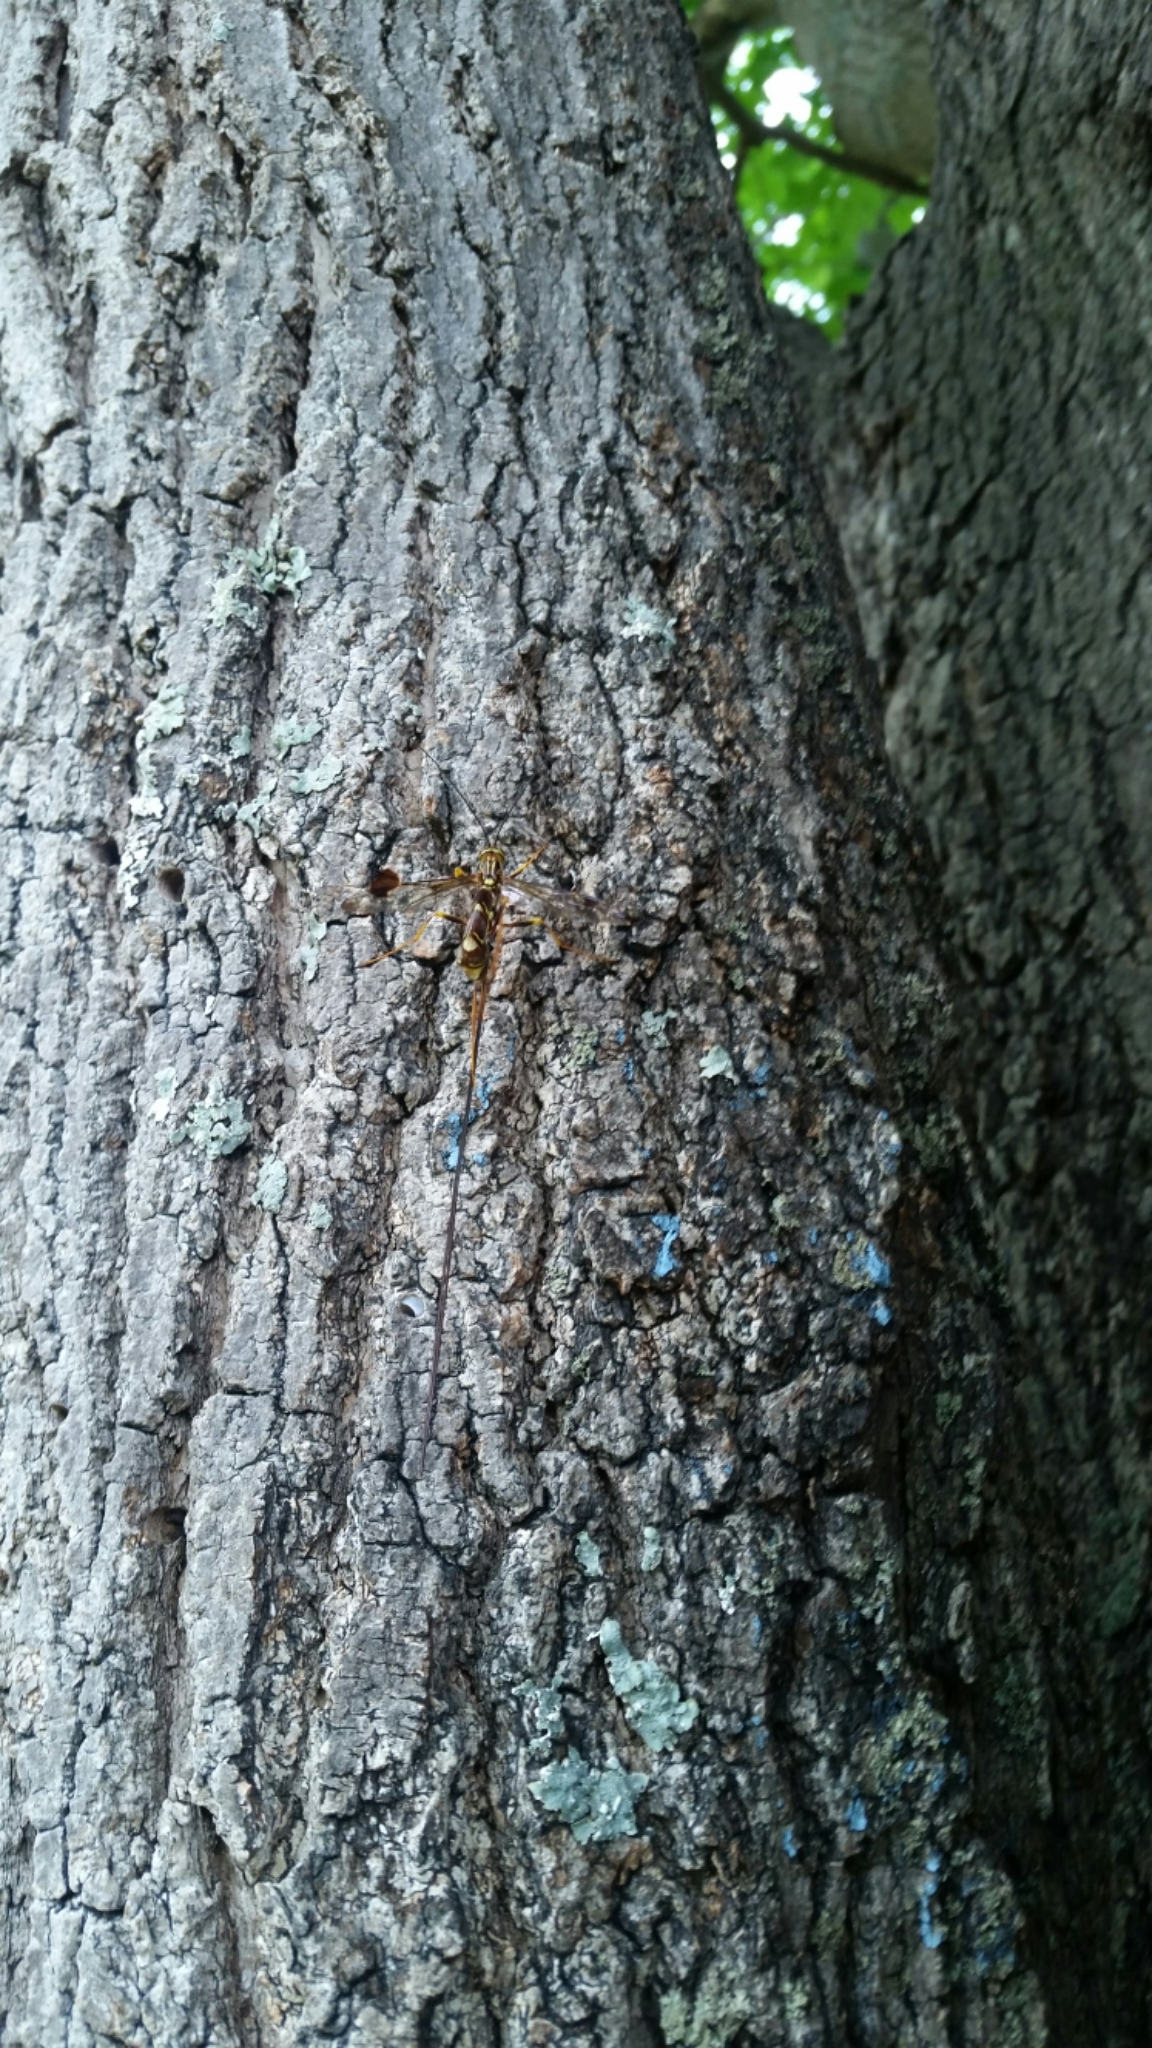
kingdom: Animalia
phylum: Arthropoda
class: Insecta
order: Hymenoptera
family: Ichneumonidae
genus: Megarhyssa
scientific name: Megarhyssa macrura
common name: Long-tailed giant ichneumonid wasp
